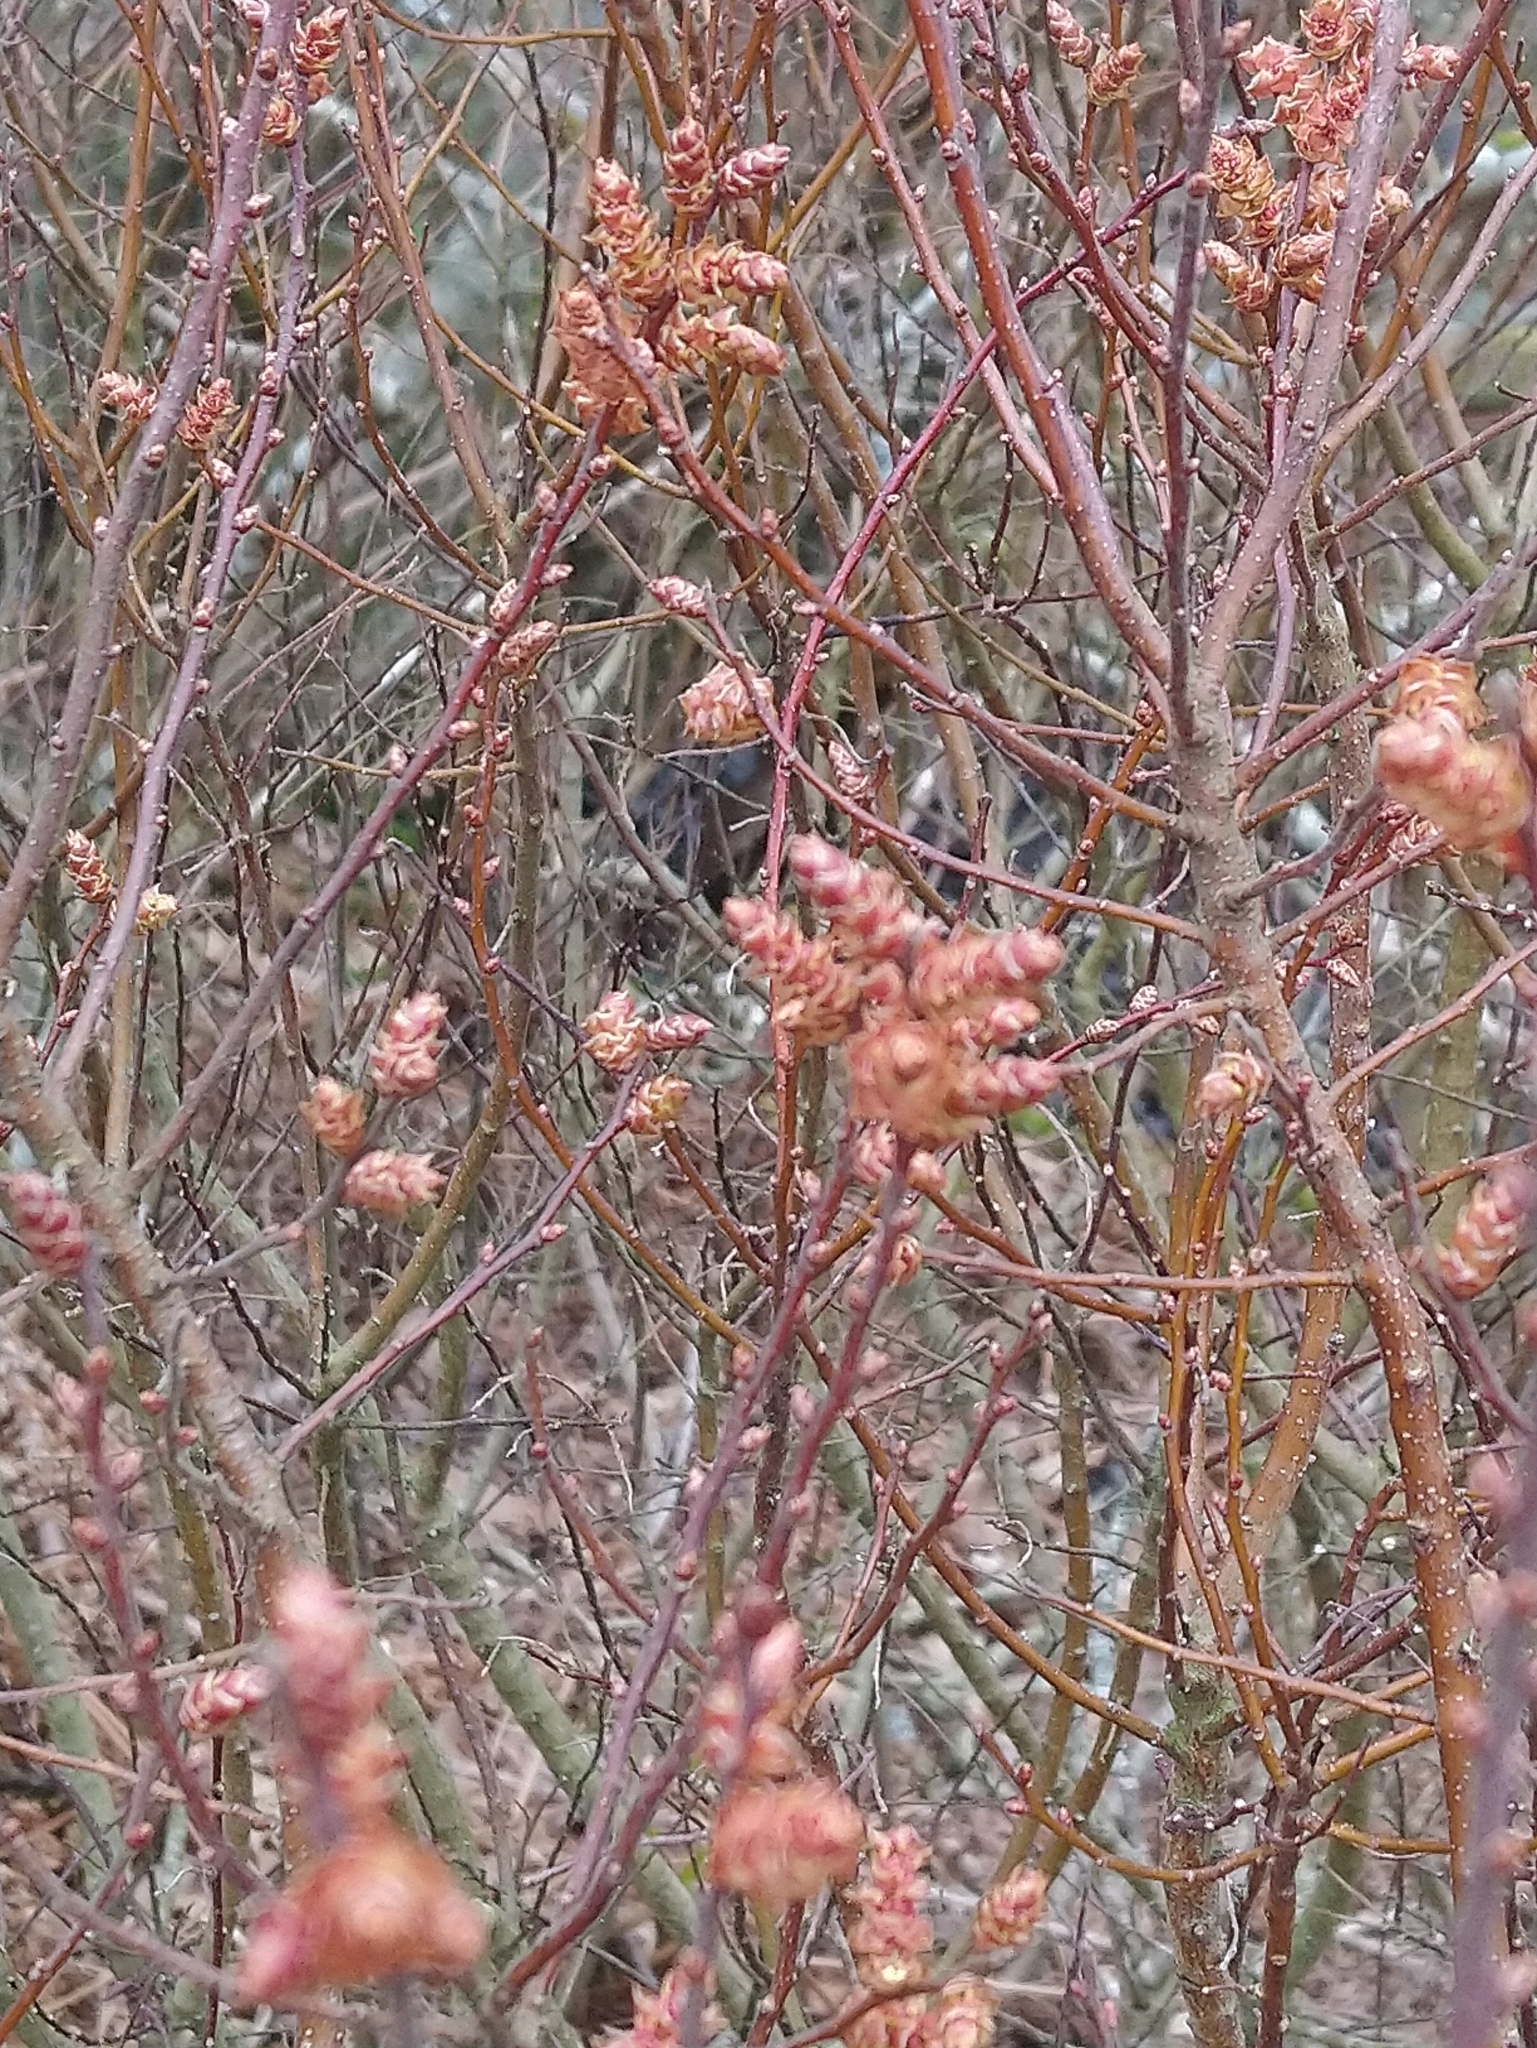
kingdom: Plantae
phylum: Tracheophyta
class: Magnoliopsida
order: Fagales
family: Myricaceae
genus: Myrica
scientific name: Myrica gale
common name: Sweet gale
